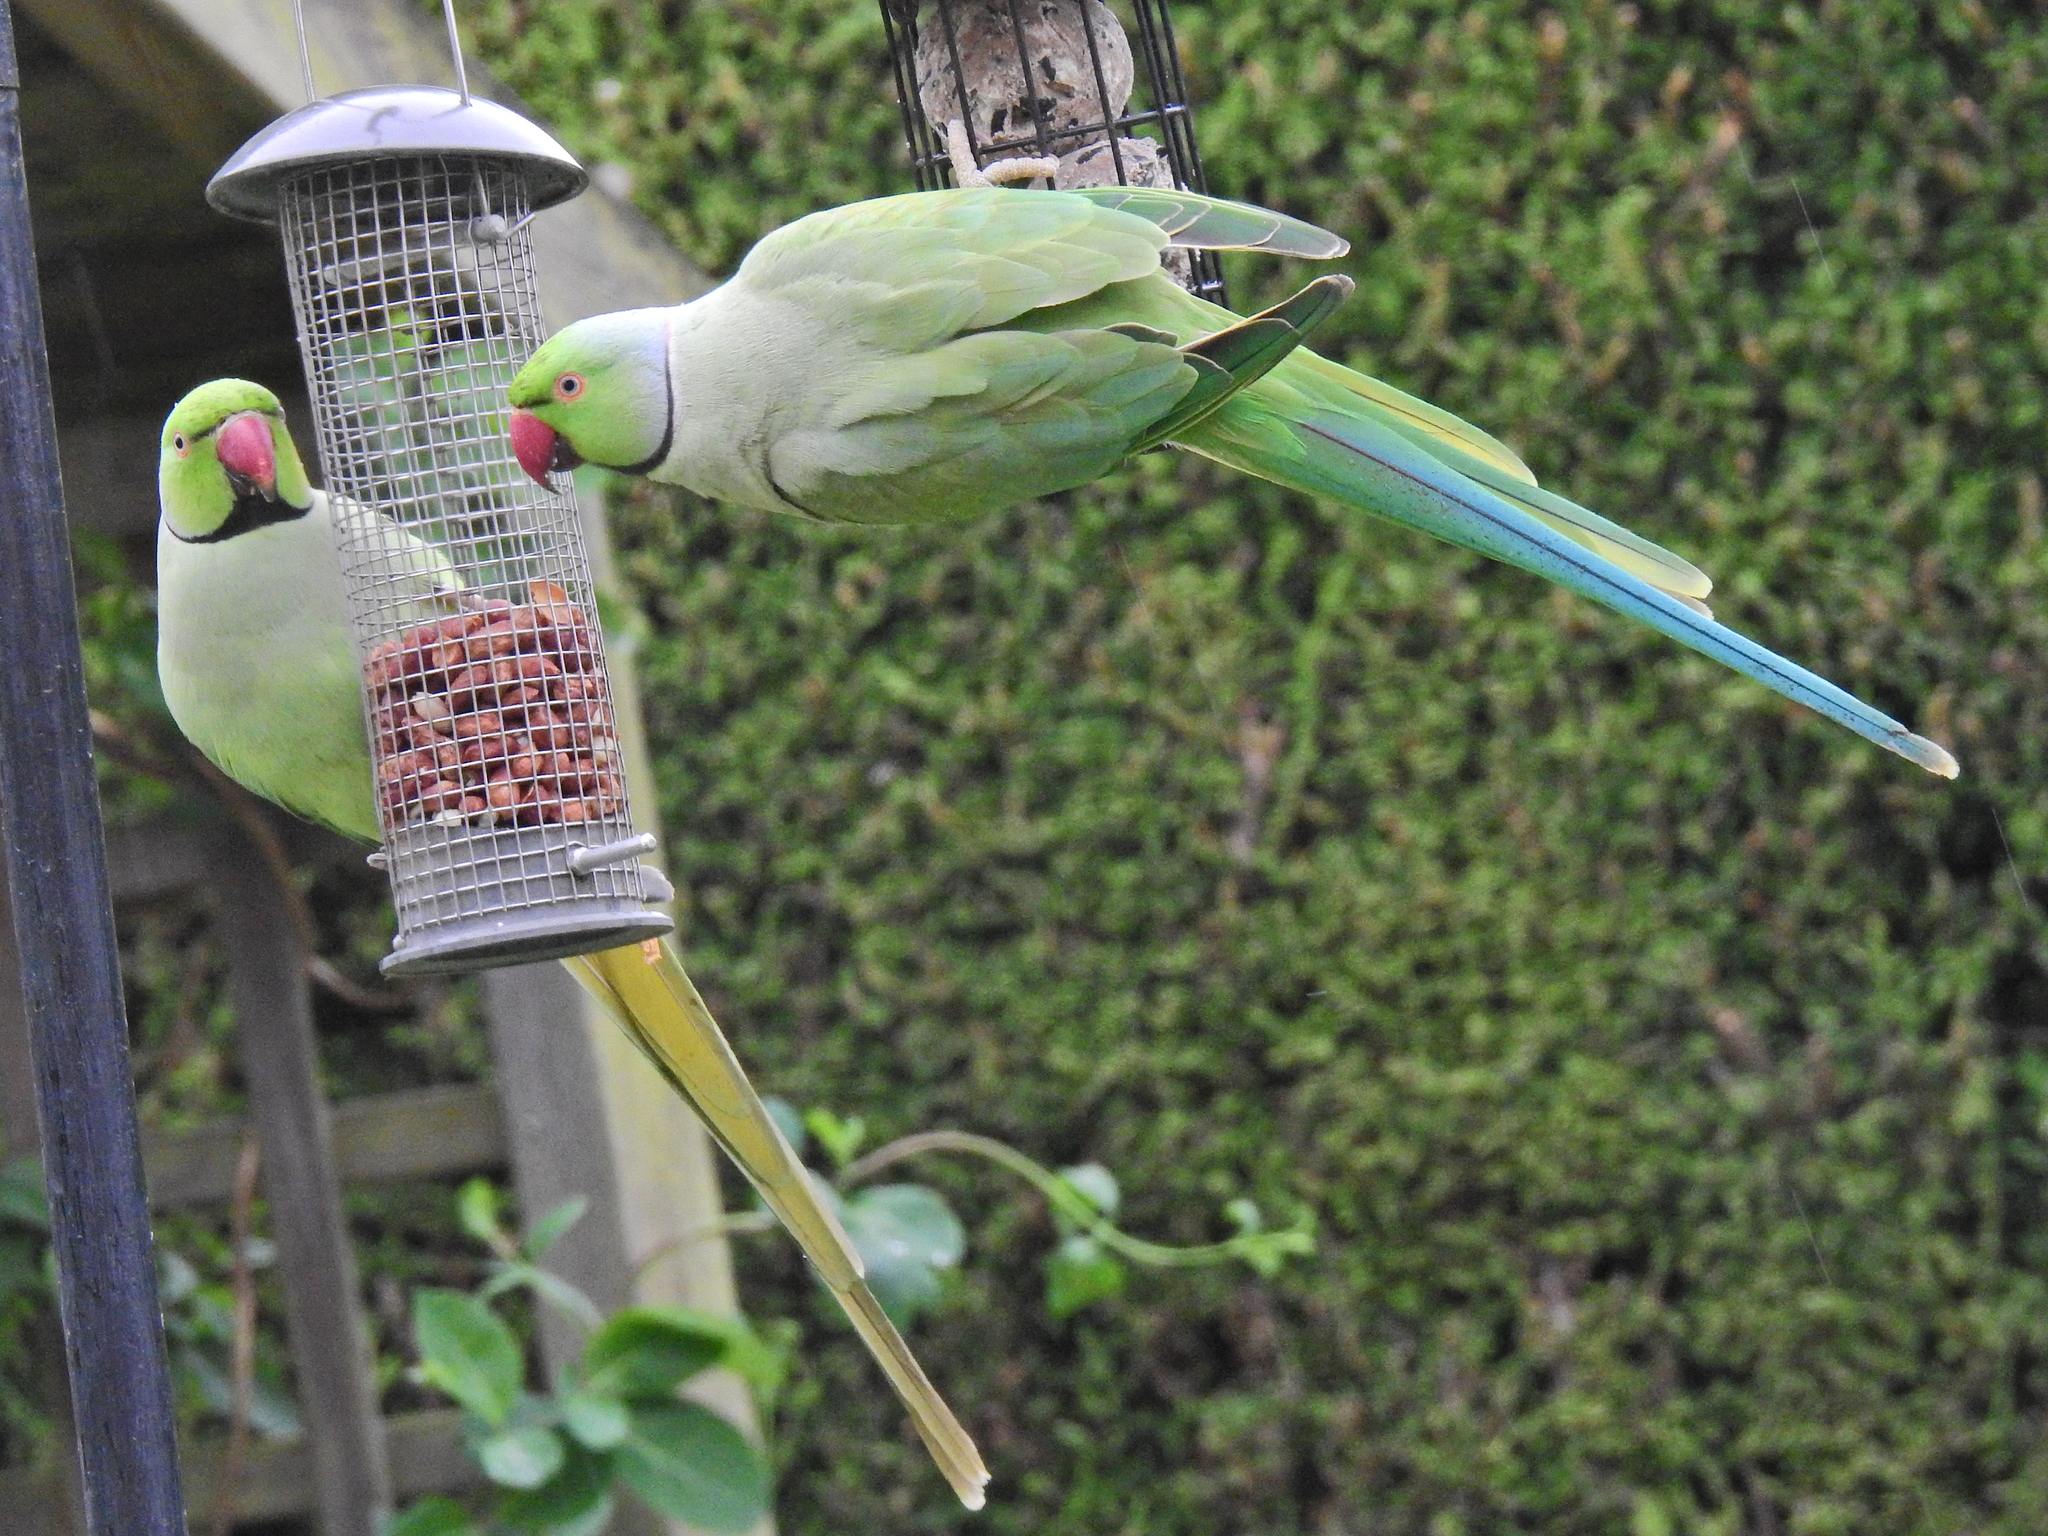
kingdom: Animalia
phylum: Chordata
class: Aves
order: Psittaciformes
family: Psittacidae
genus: Psittacula
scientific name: Psittacula krameri
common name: Rose-ringed parakeet
